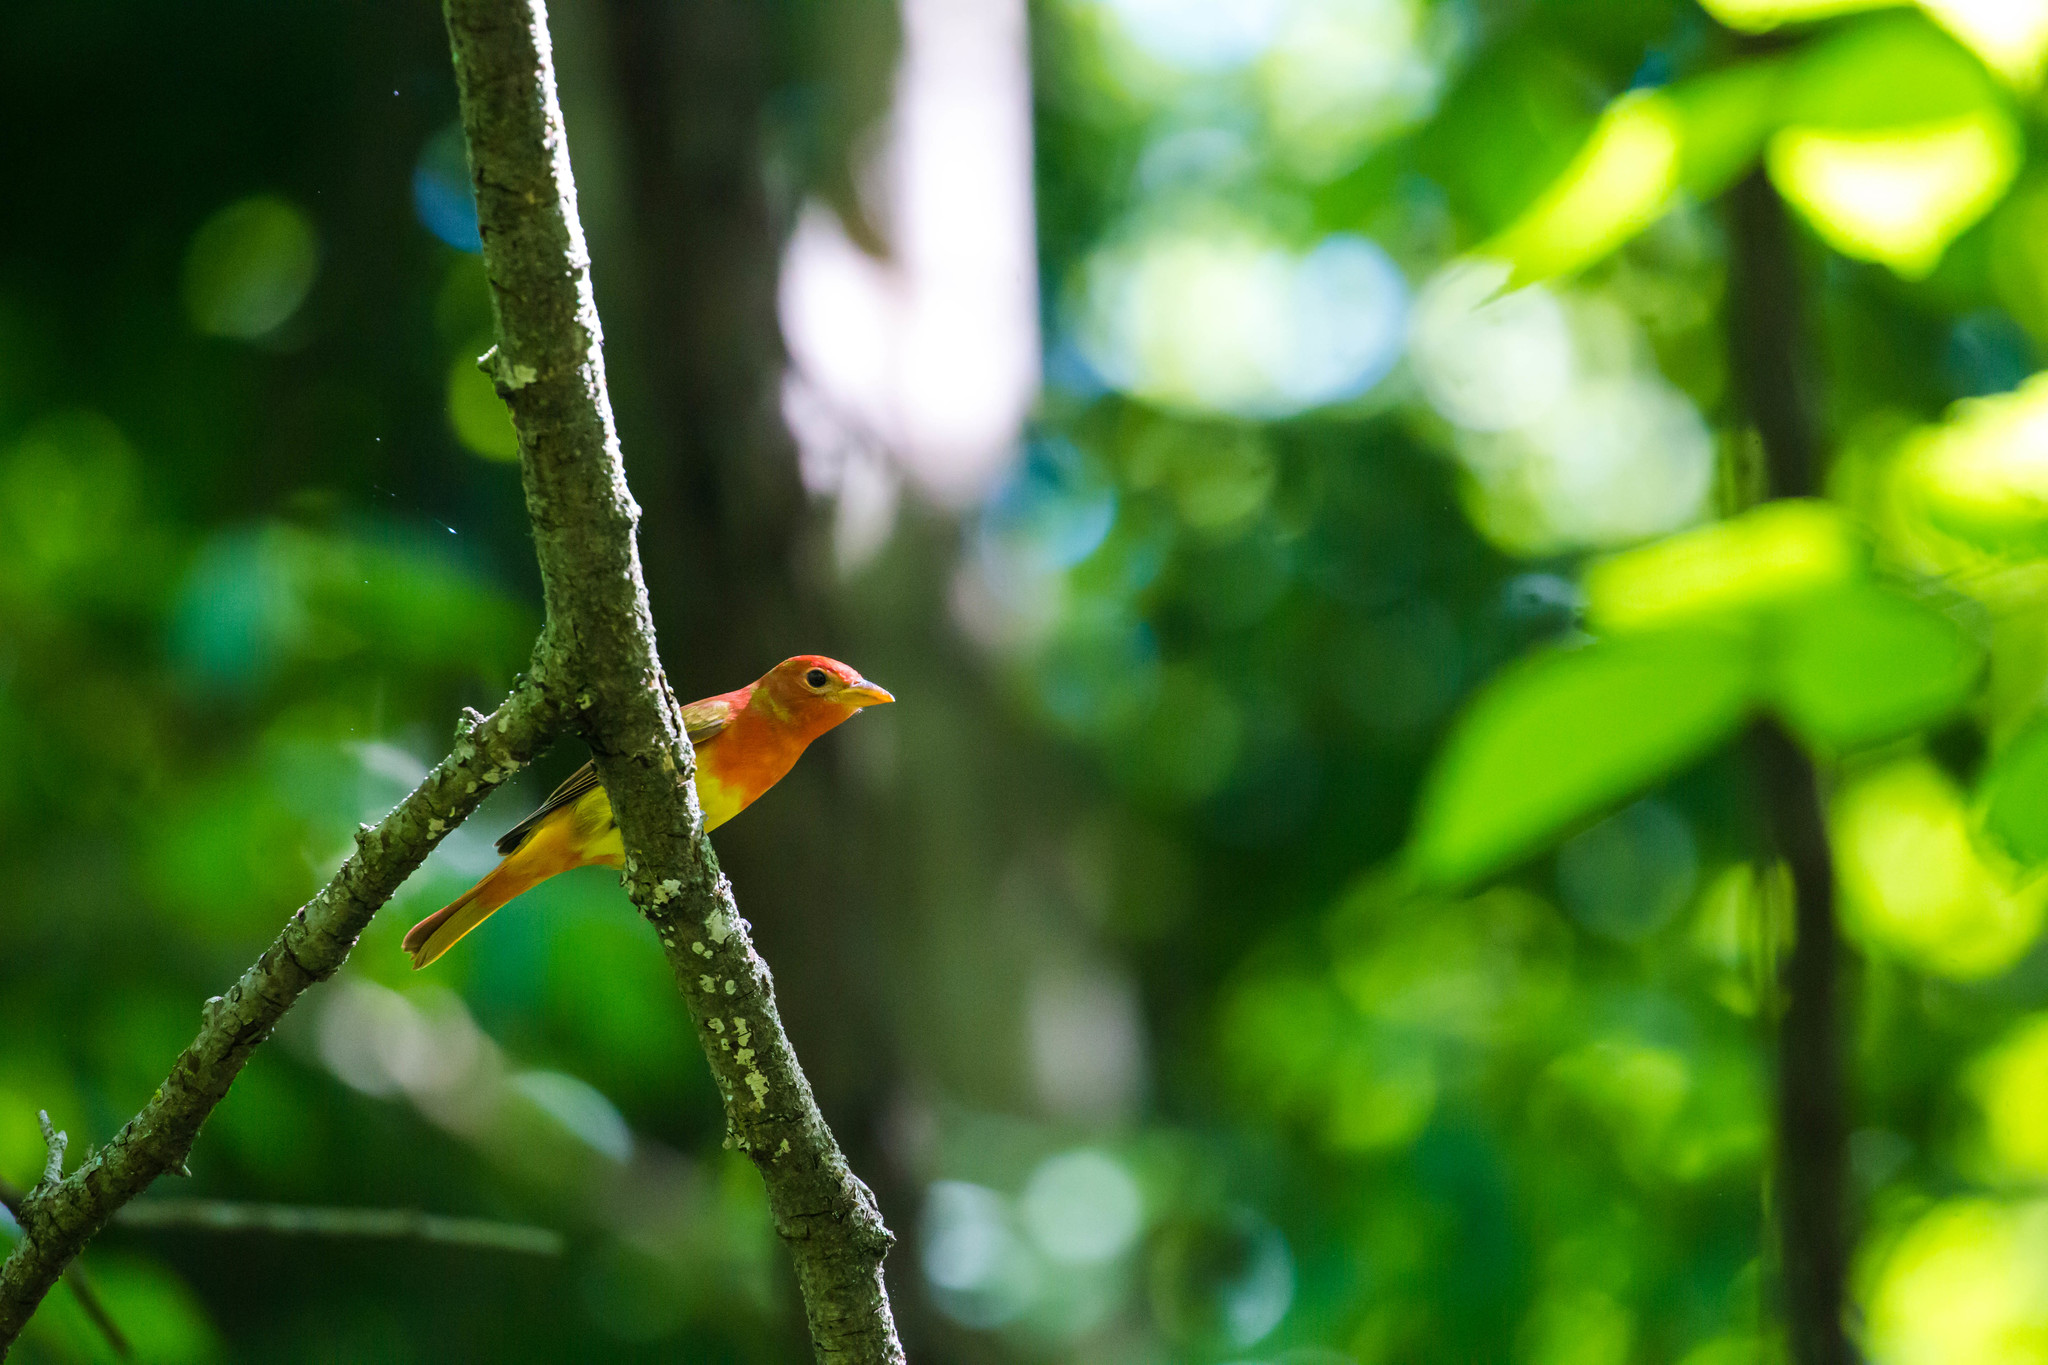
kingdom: Animalia
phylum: Chordata
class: Aves
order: Passeriformes
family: Cardinalidae
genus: Piranga
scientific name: Piranga rubra
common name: Summer tanager
